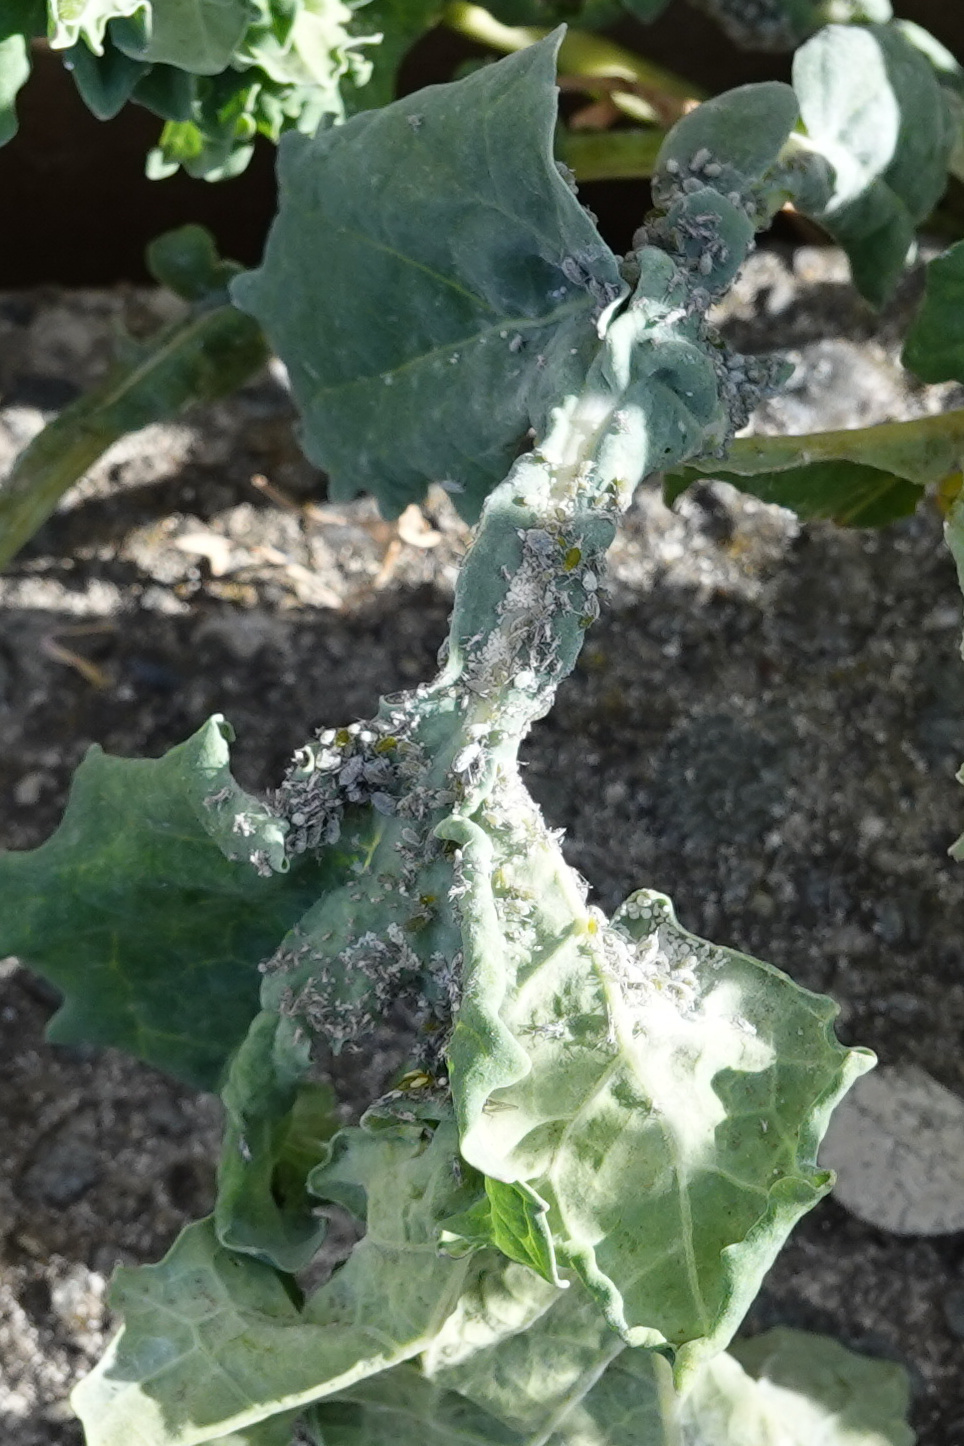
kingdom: Animalia
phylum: Arthropoda
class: Insecta
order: Hemiptera
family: Aphididae
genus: Brevicoryne
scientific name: Brevicoryne brassicae
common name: Cabbage aphid
